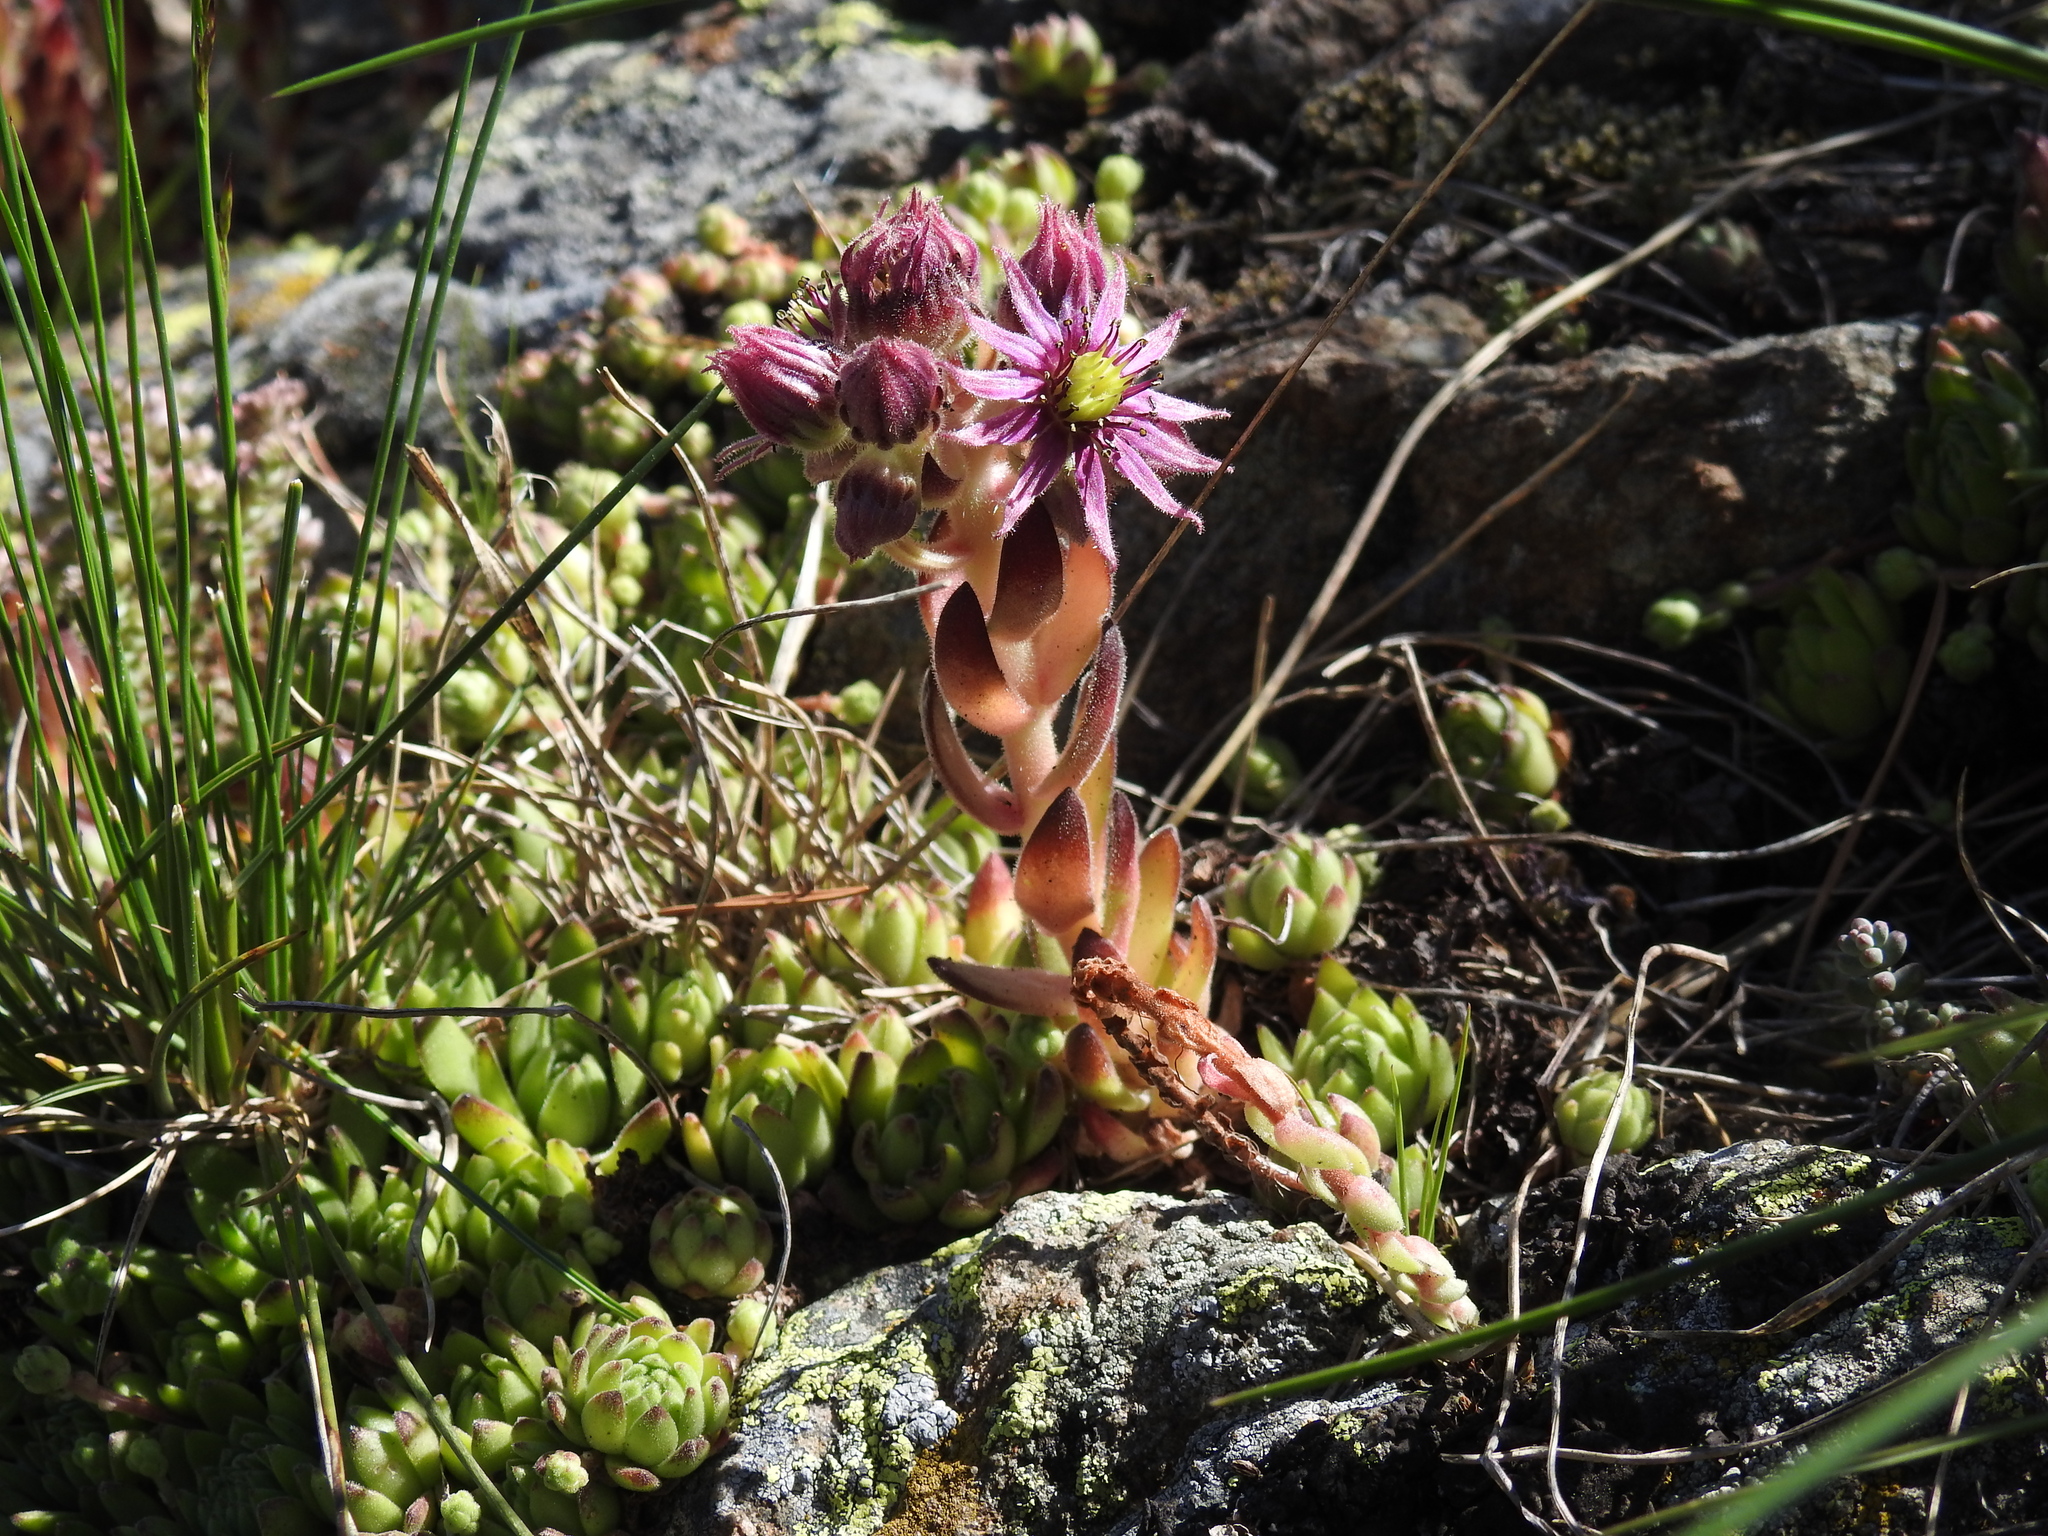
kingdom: Plantae
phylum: Tracheophyta
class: Magnoliopsida
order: Saxifragales
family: Crassulaceae
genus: Sempervivum
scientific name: Sempervivum montanum
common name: Mountain house-leek
